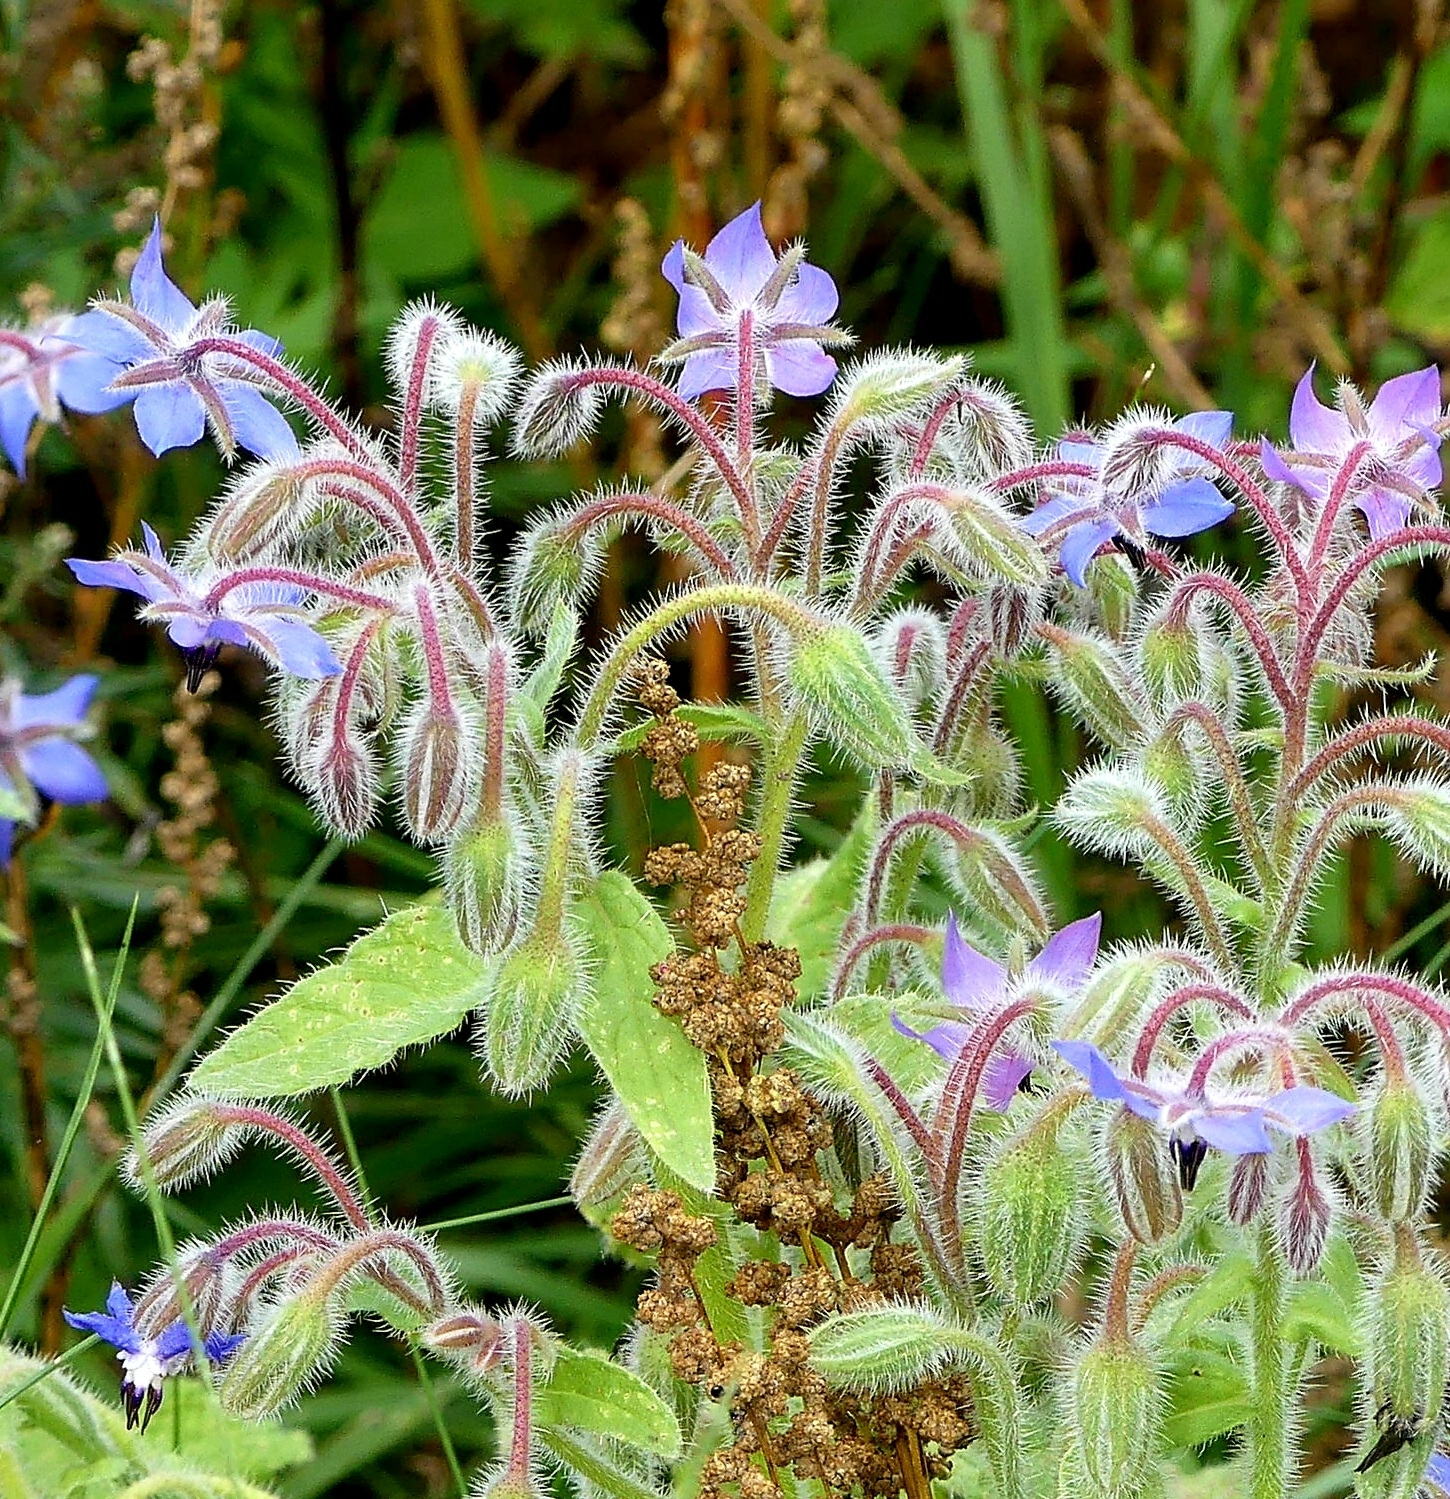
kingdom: Plantae
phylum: Tracheophyta
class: Magnoliopsida
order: Boraginales
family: Boraginaceae
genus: Borago
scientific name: Borago officinalis
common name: Borage
